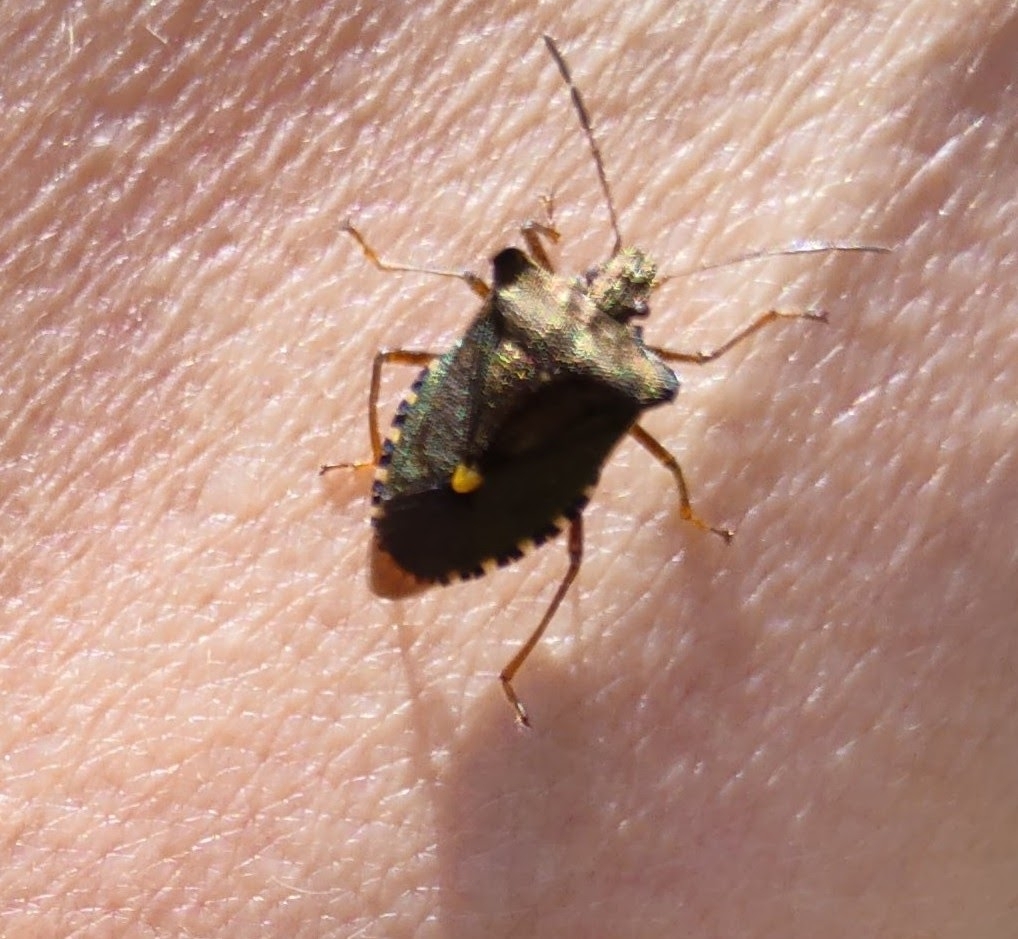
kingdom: Animalia
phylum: Arthropoda
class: Insecta
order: Hemiptera
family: Pentatomidae
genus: Pentatoma
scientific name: Pentatoma rufipes
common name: Forest bug
